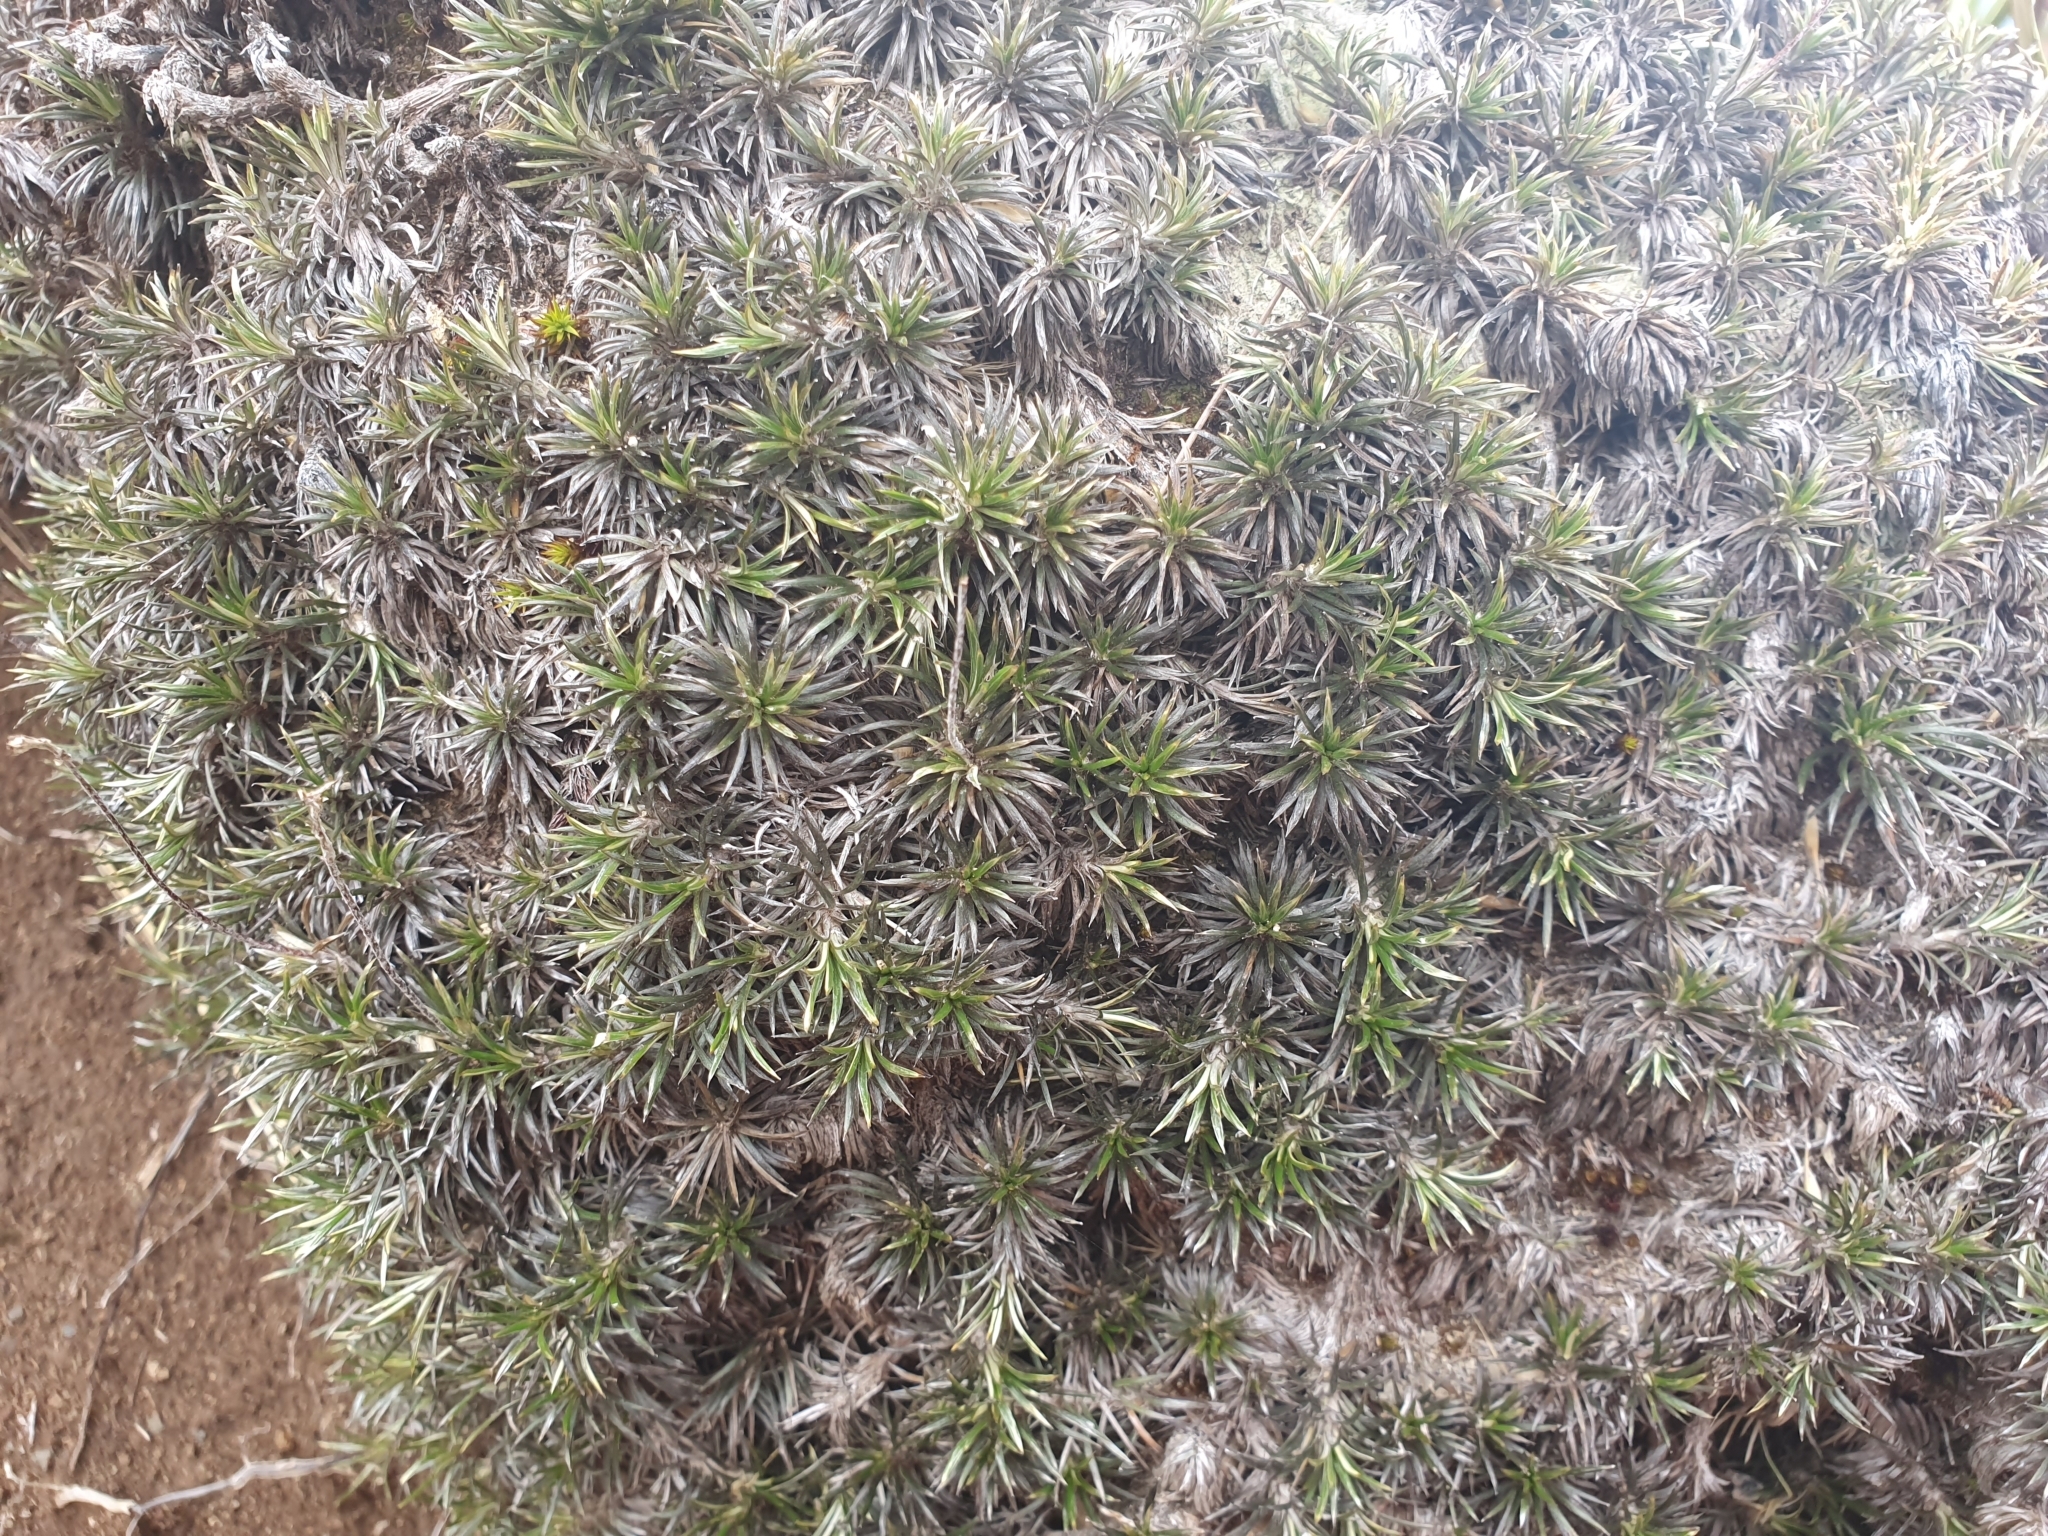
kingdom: Plantae
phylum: Tracheophyta
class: Magnoliopsida
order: Asterales
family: Asteraceae
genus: Celmisia
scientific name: Celmisia laricifolia
